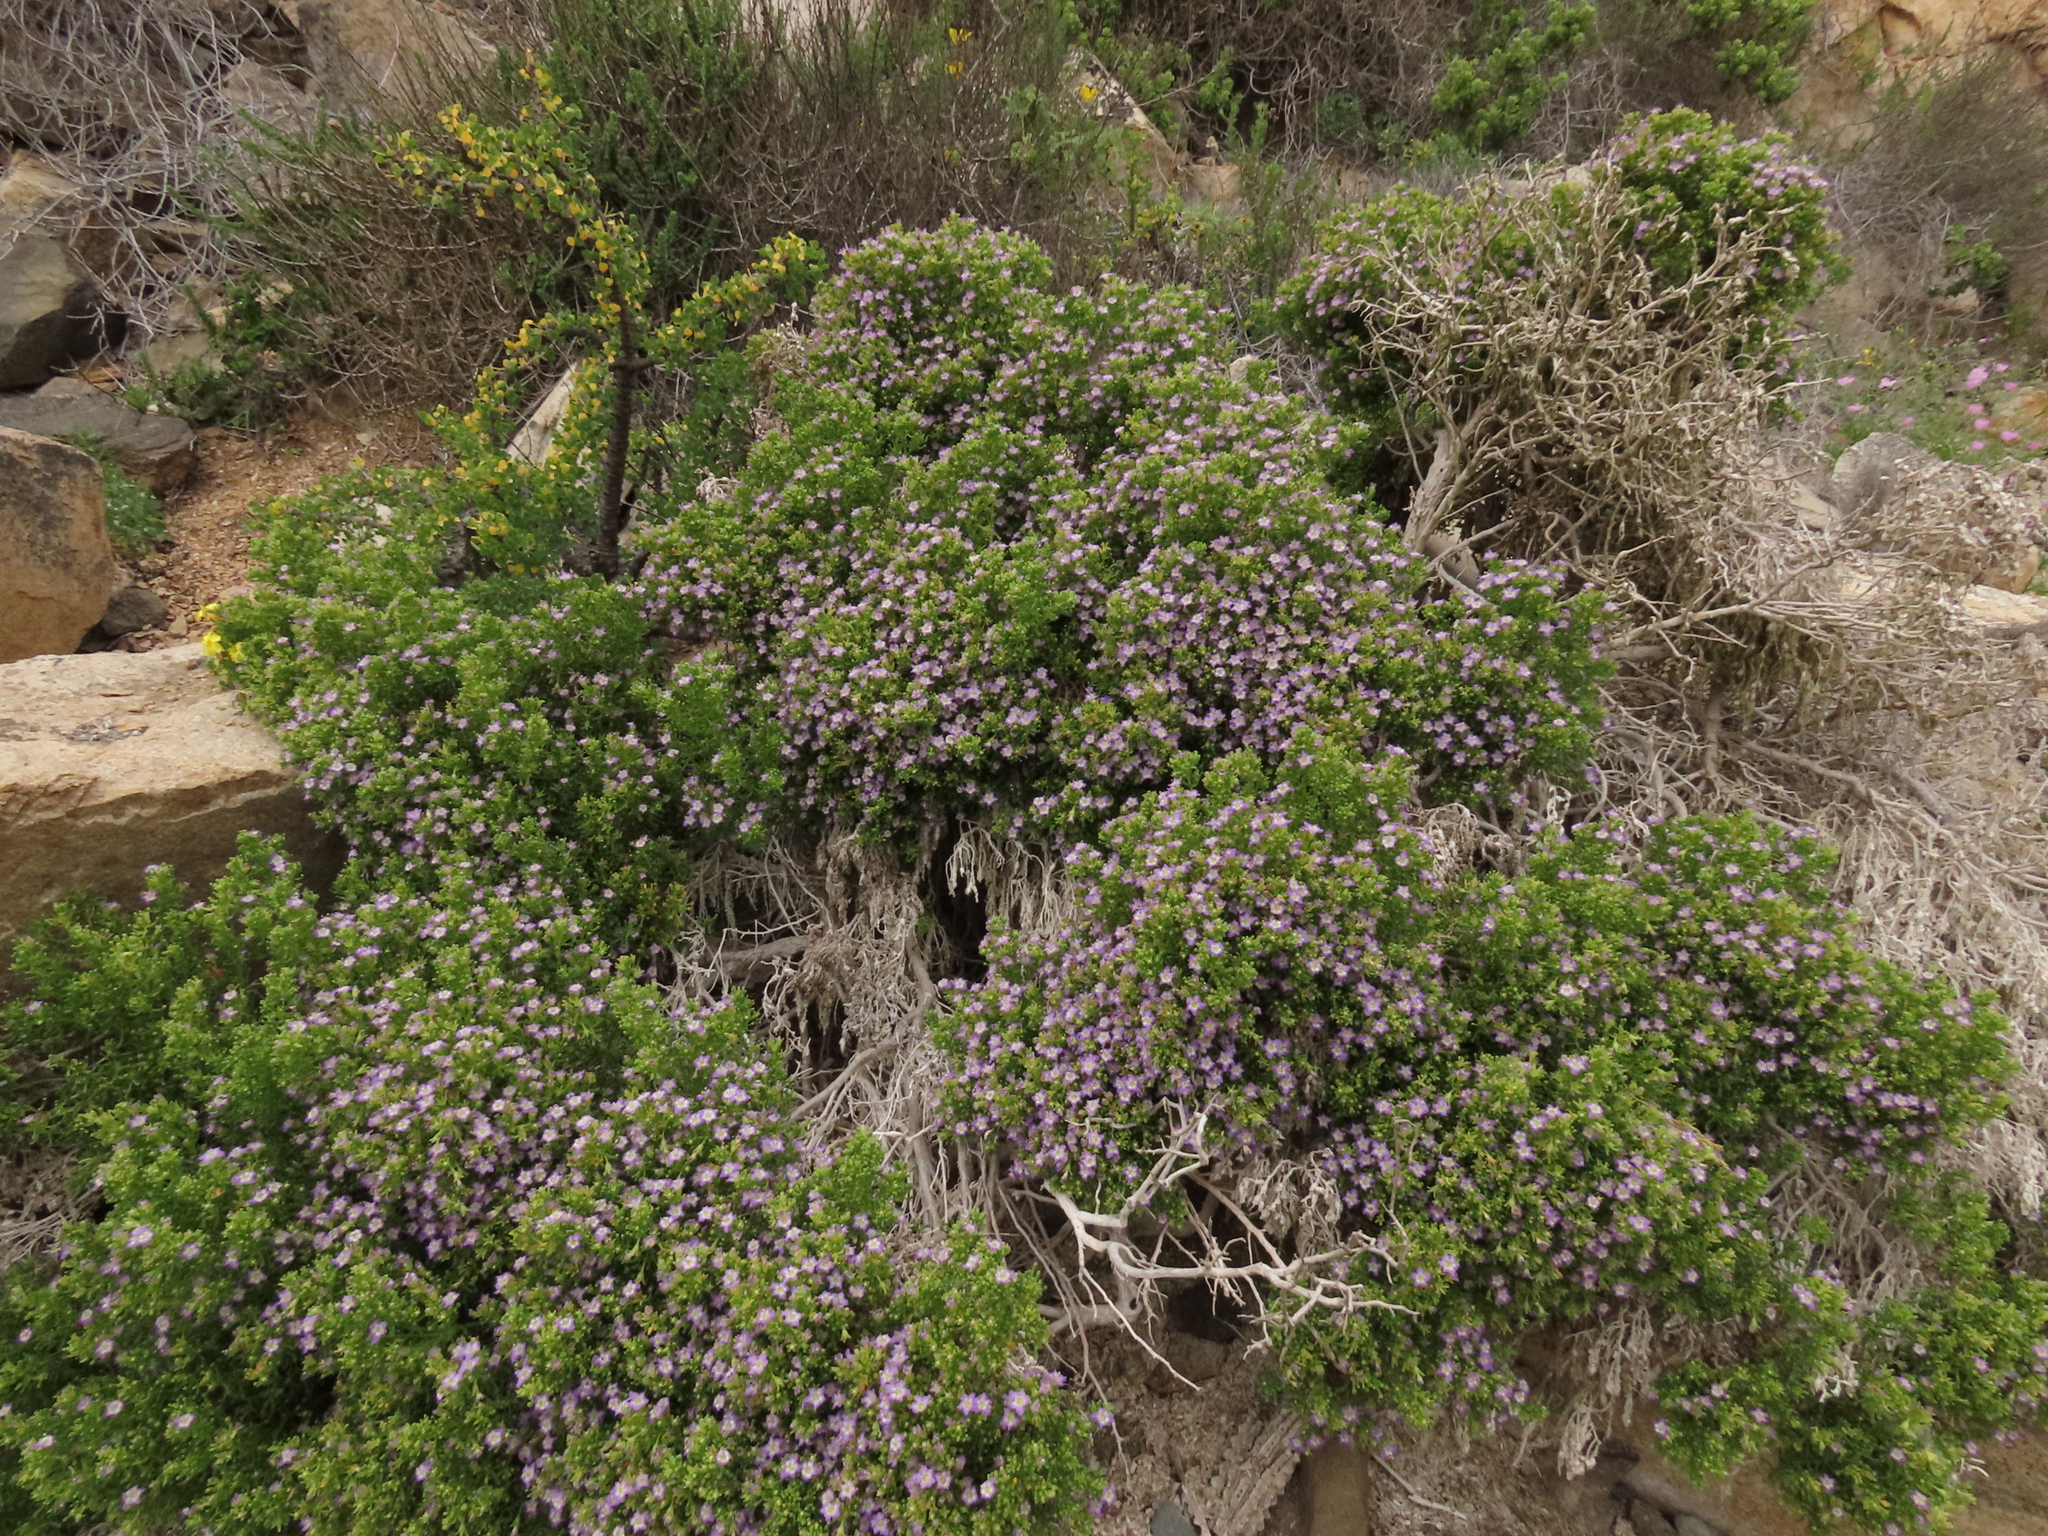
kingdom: Plantae
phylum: Tracheophyta
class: Magnoliopsida
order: Solanales
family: Solanaceae
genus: Nolana
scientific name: Nolana divaricata
